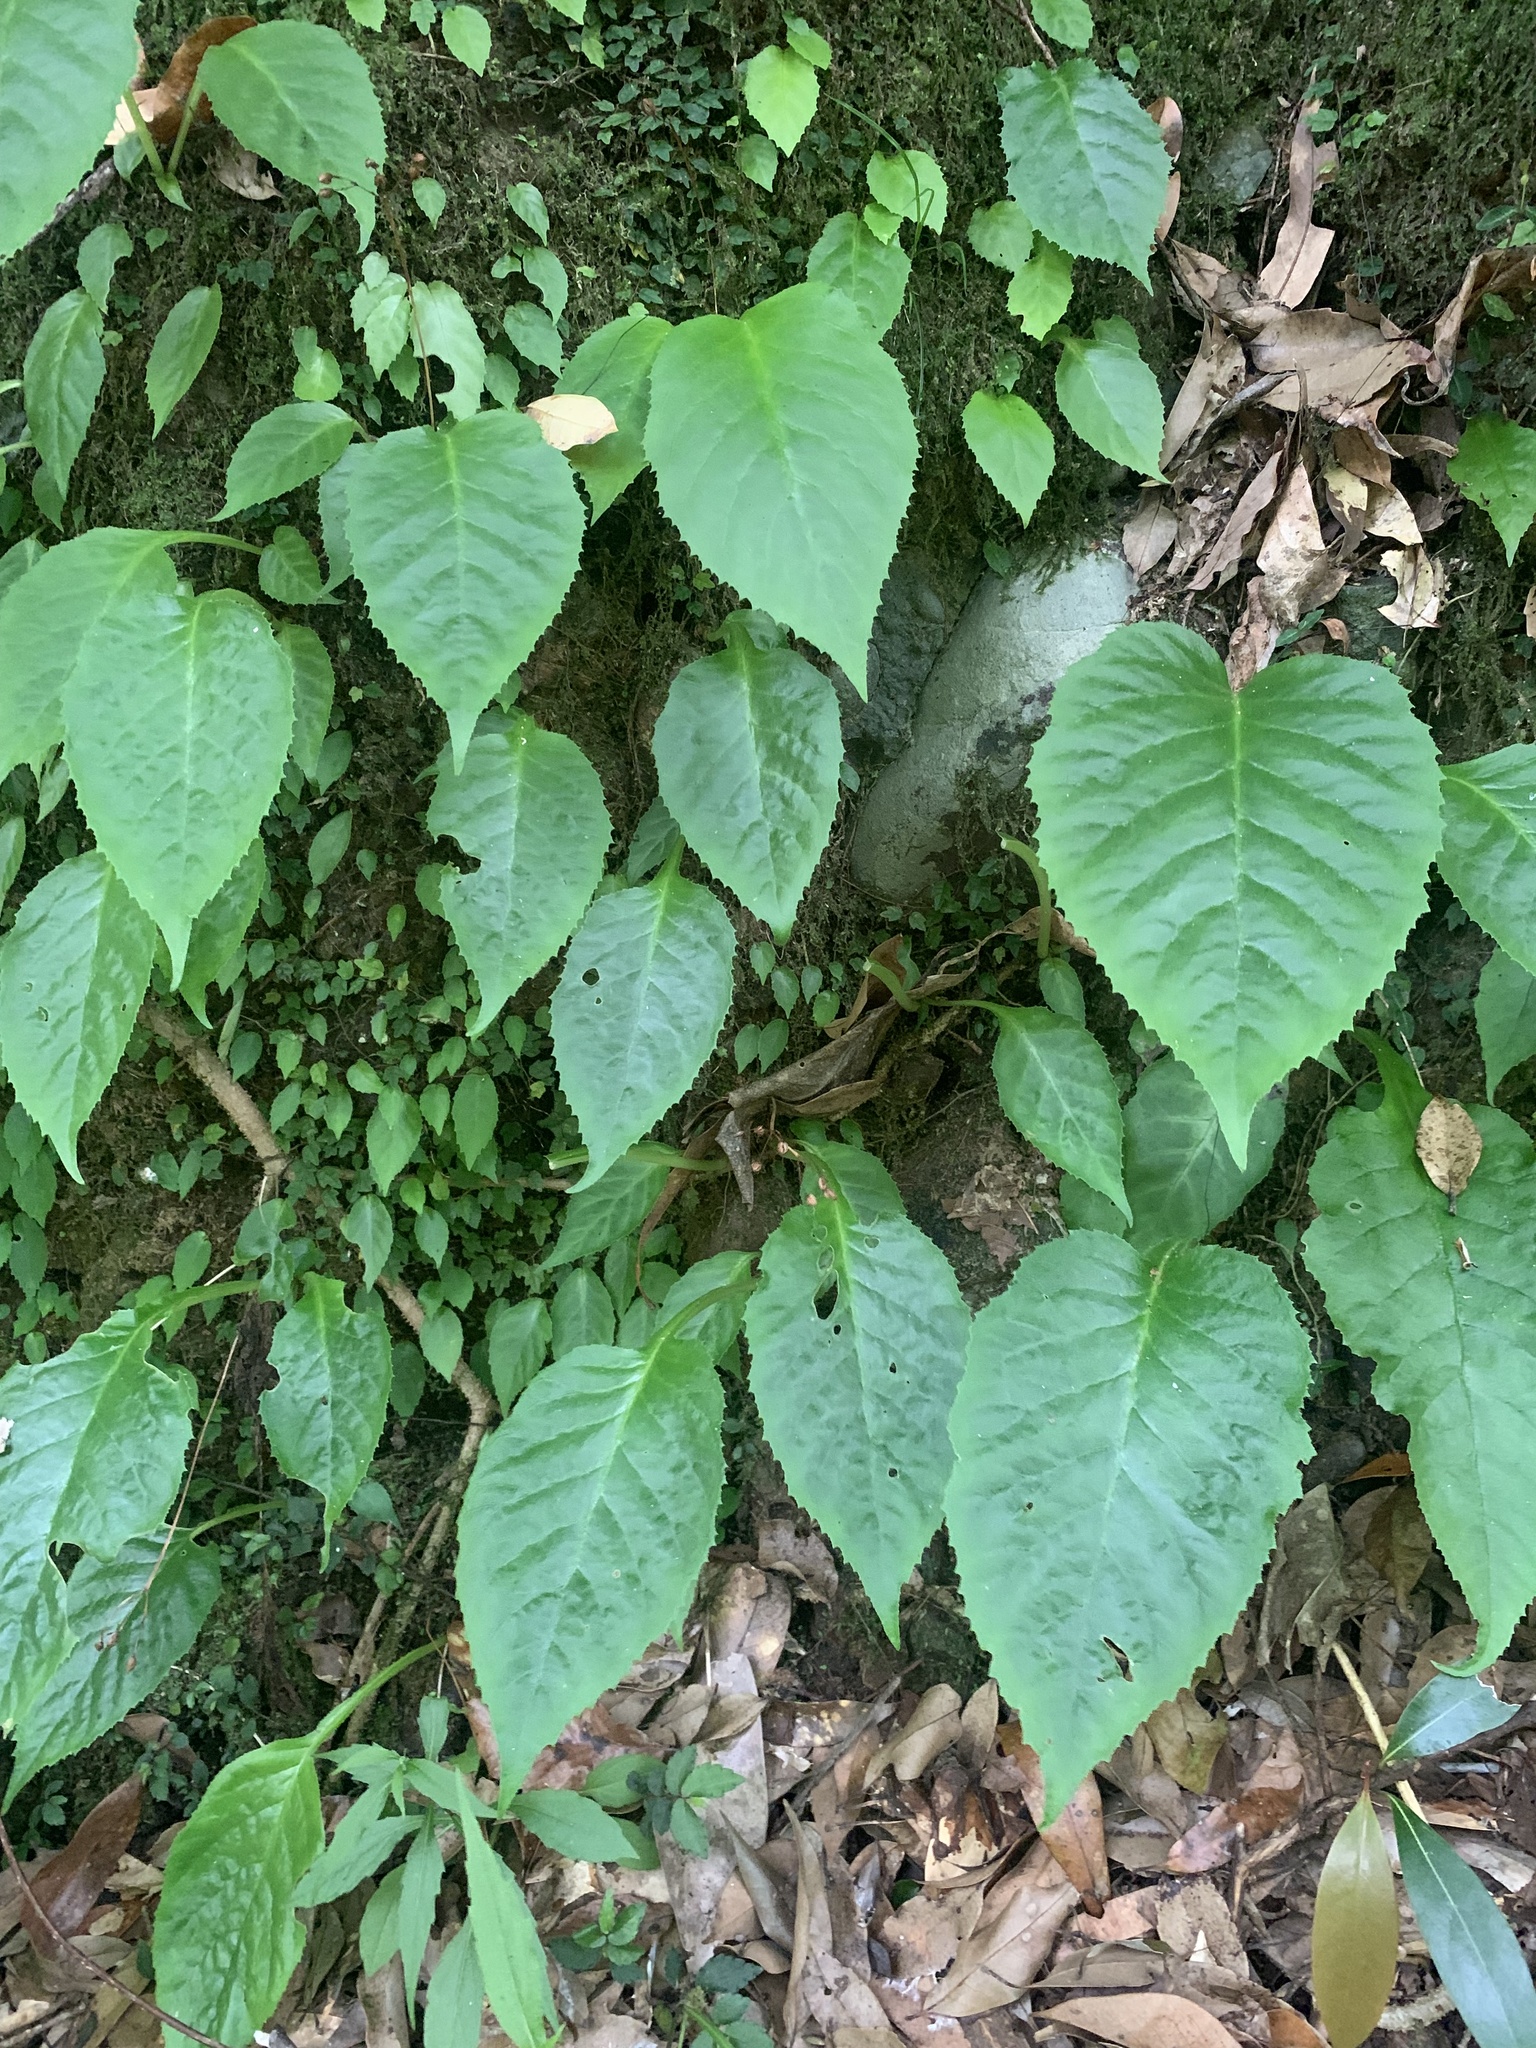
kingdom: Plantae
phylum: Tracheophyta
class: Magnoliopsida
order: Lamiales
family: Gesneriaceae
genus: Conandron
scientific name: Conandron ramondioides
